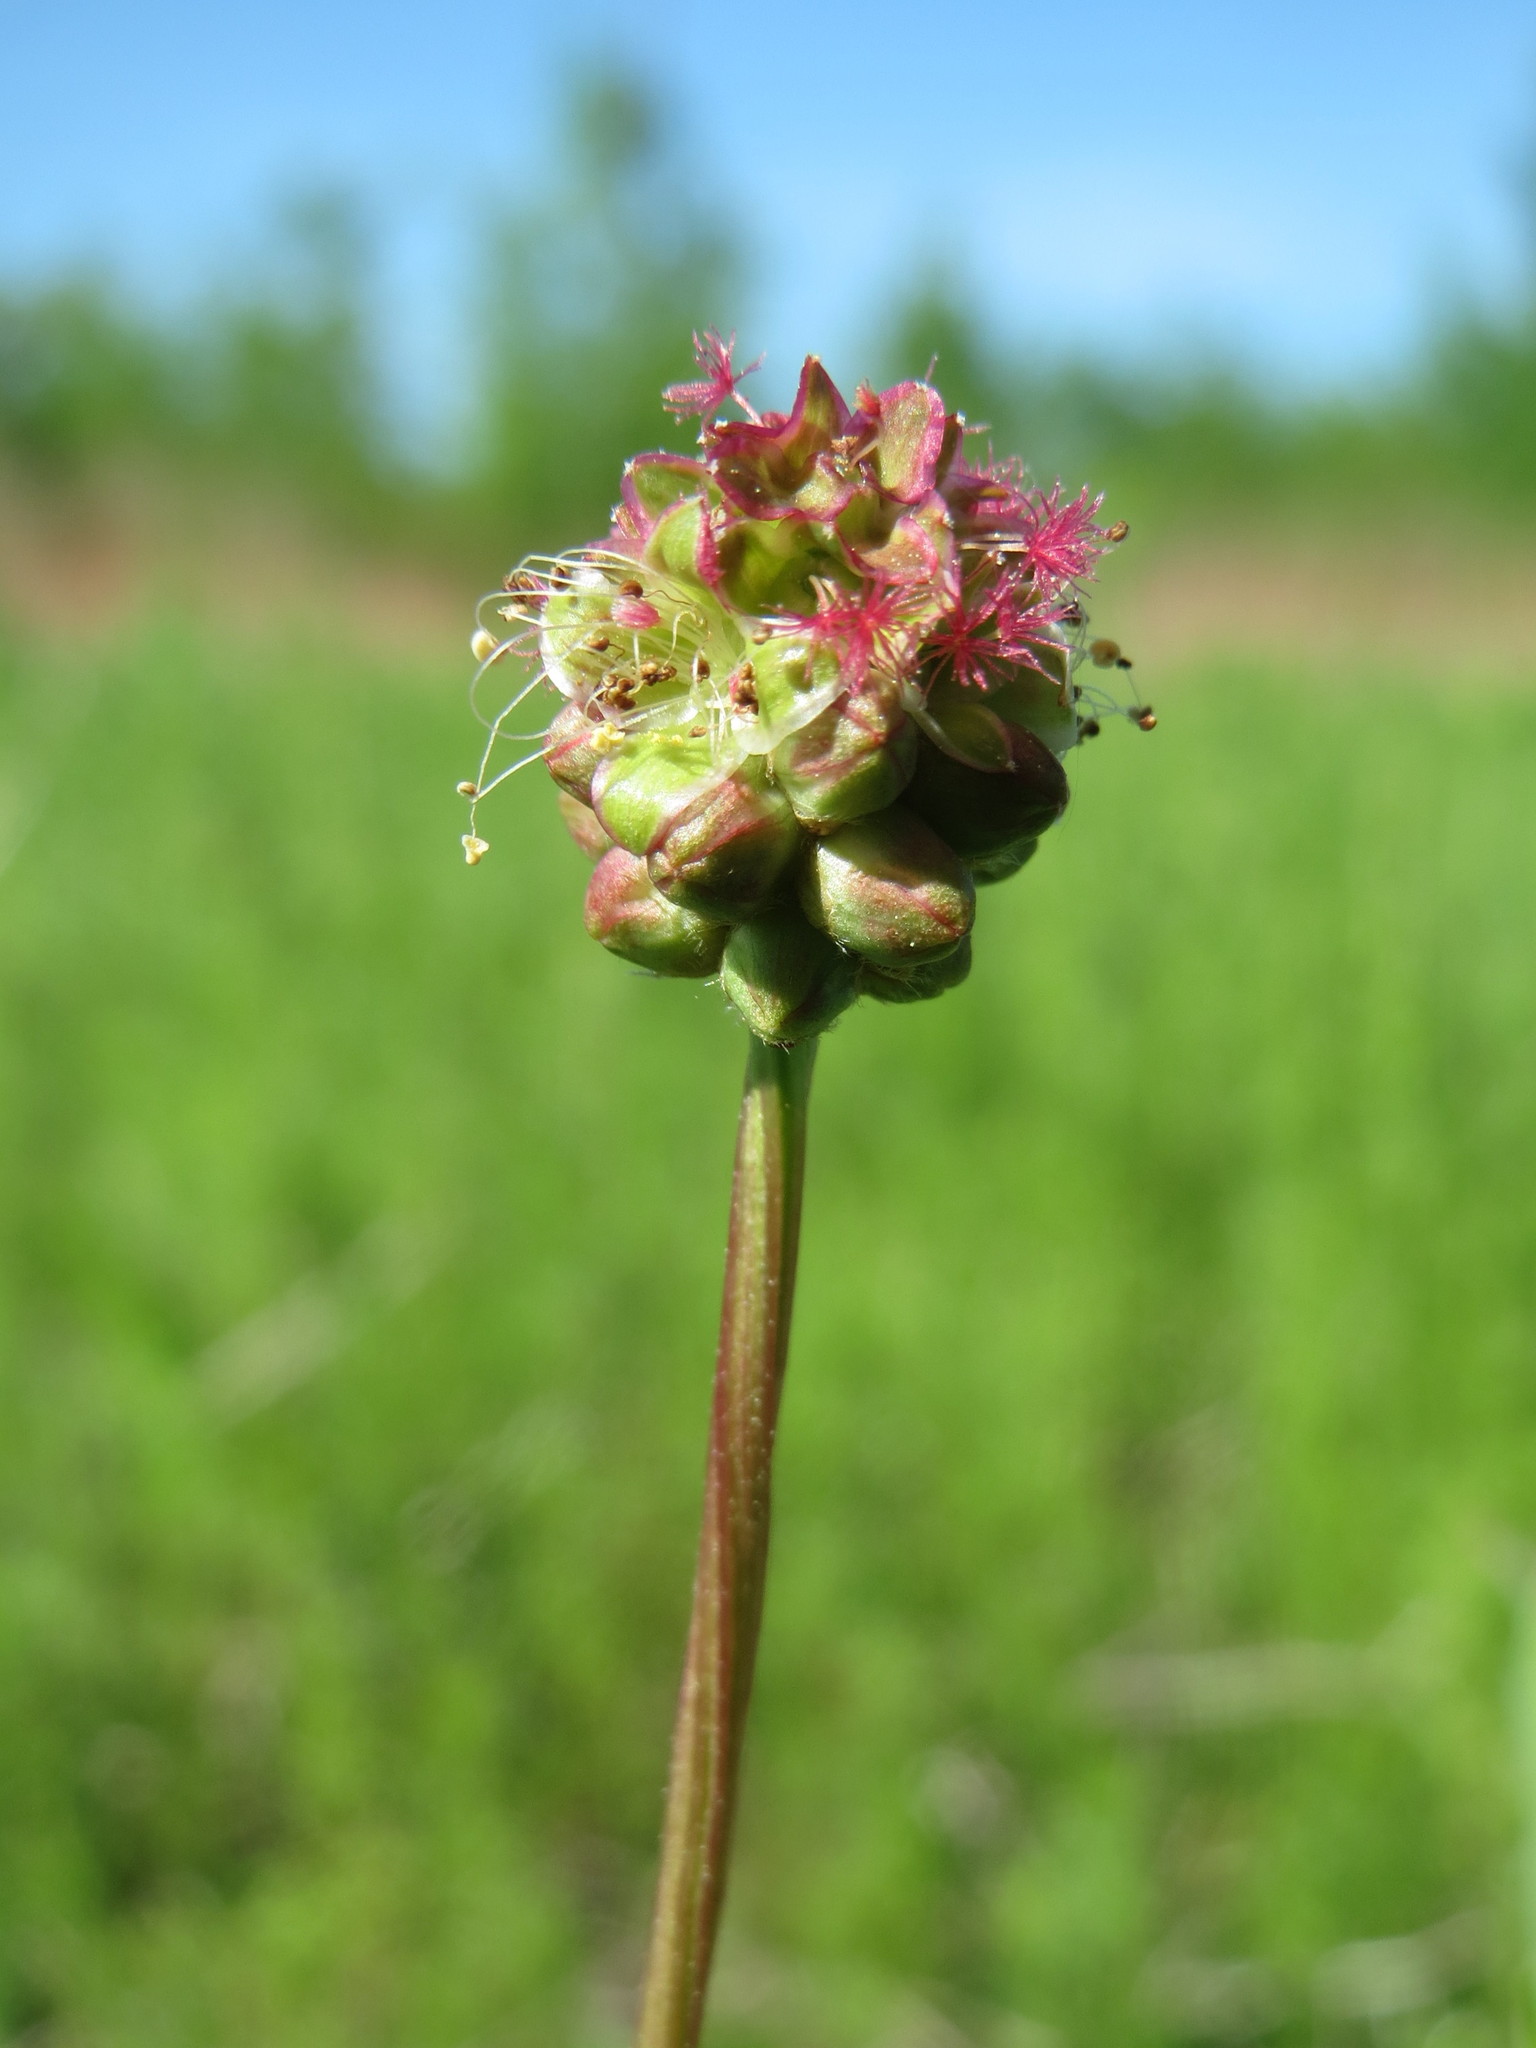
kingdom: Plantae
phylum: Tracheophyta
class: Magnoliopsida
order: Rosales
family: Rosaceae
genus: Poterium
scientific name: Poterium sanguisorba
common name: Salad burnet
